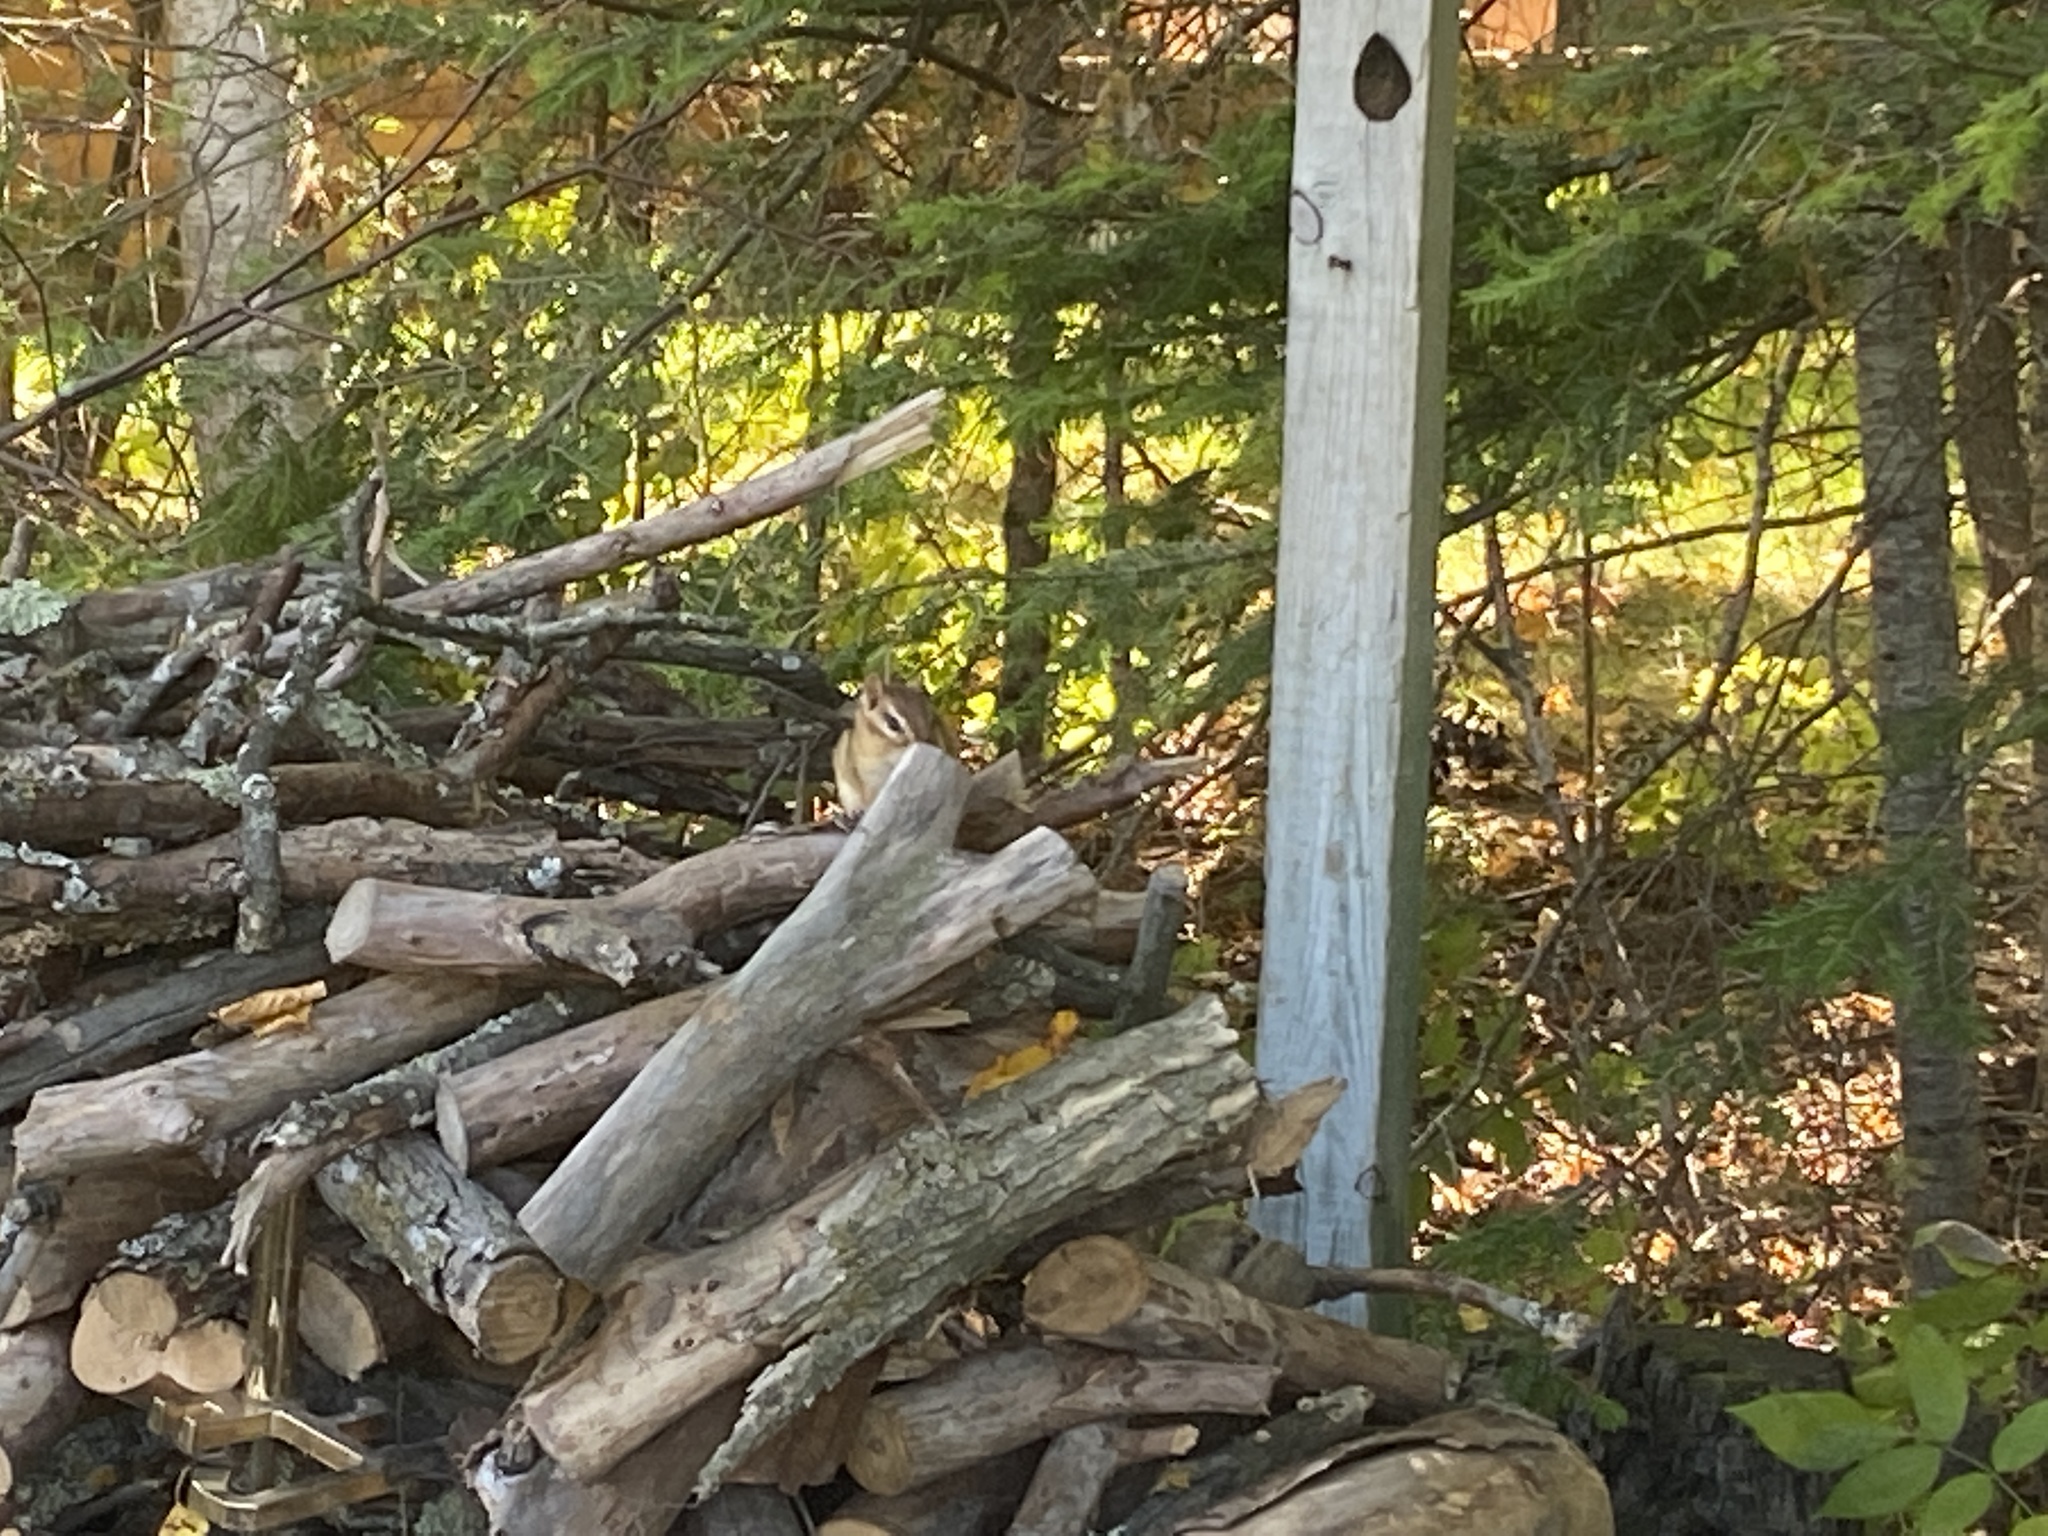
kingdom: Animalia
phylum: Chordata
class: Mammalia
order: Rodentia
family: Sciuridae
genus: Tamias
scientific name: Tamias striatus
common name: Eastern chipmunk
